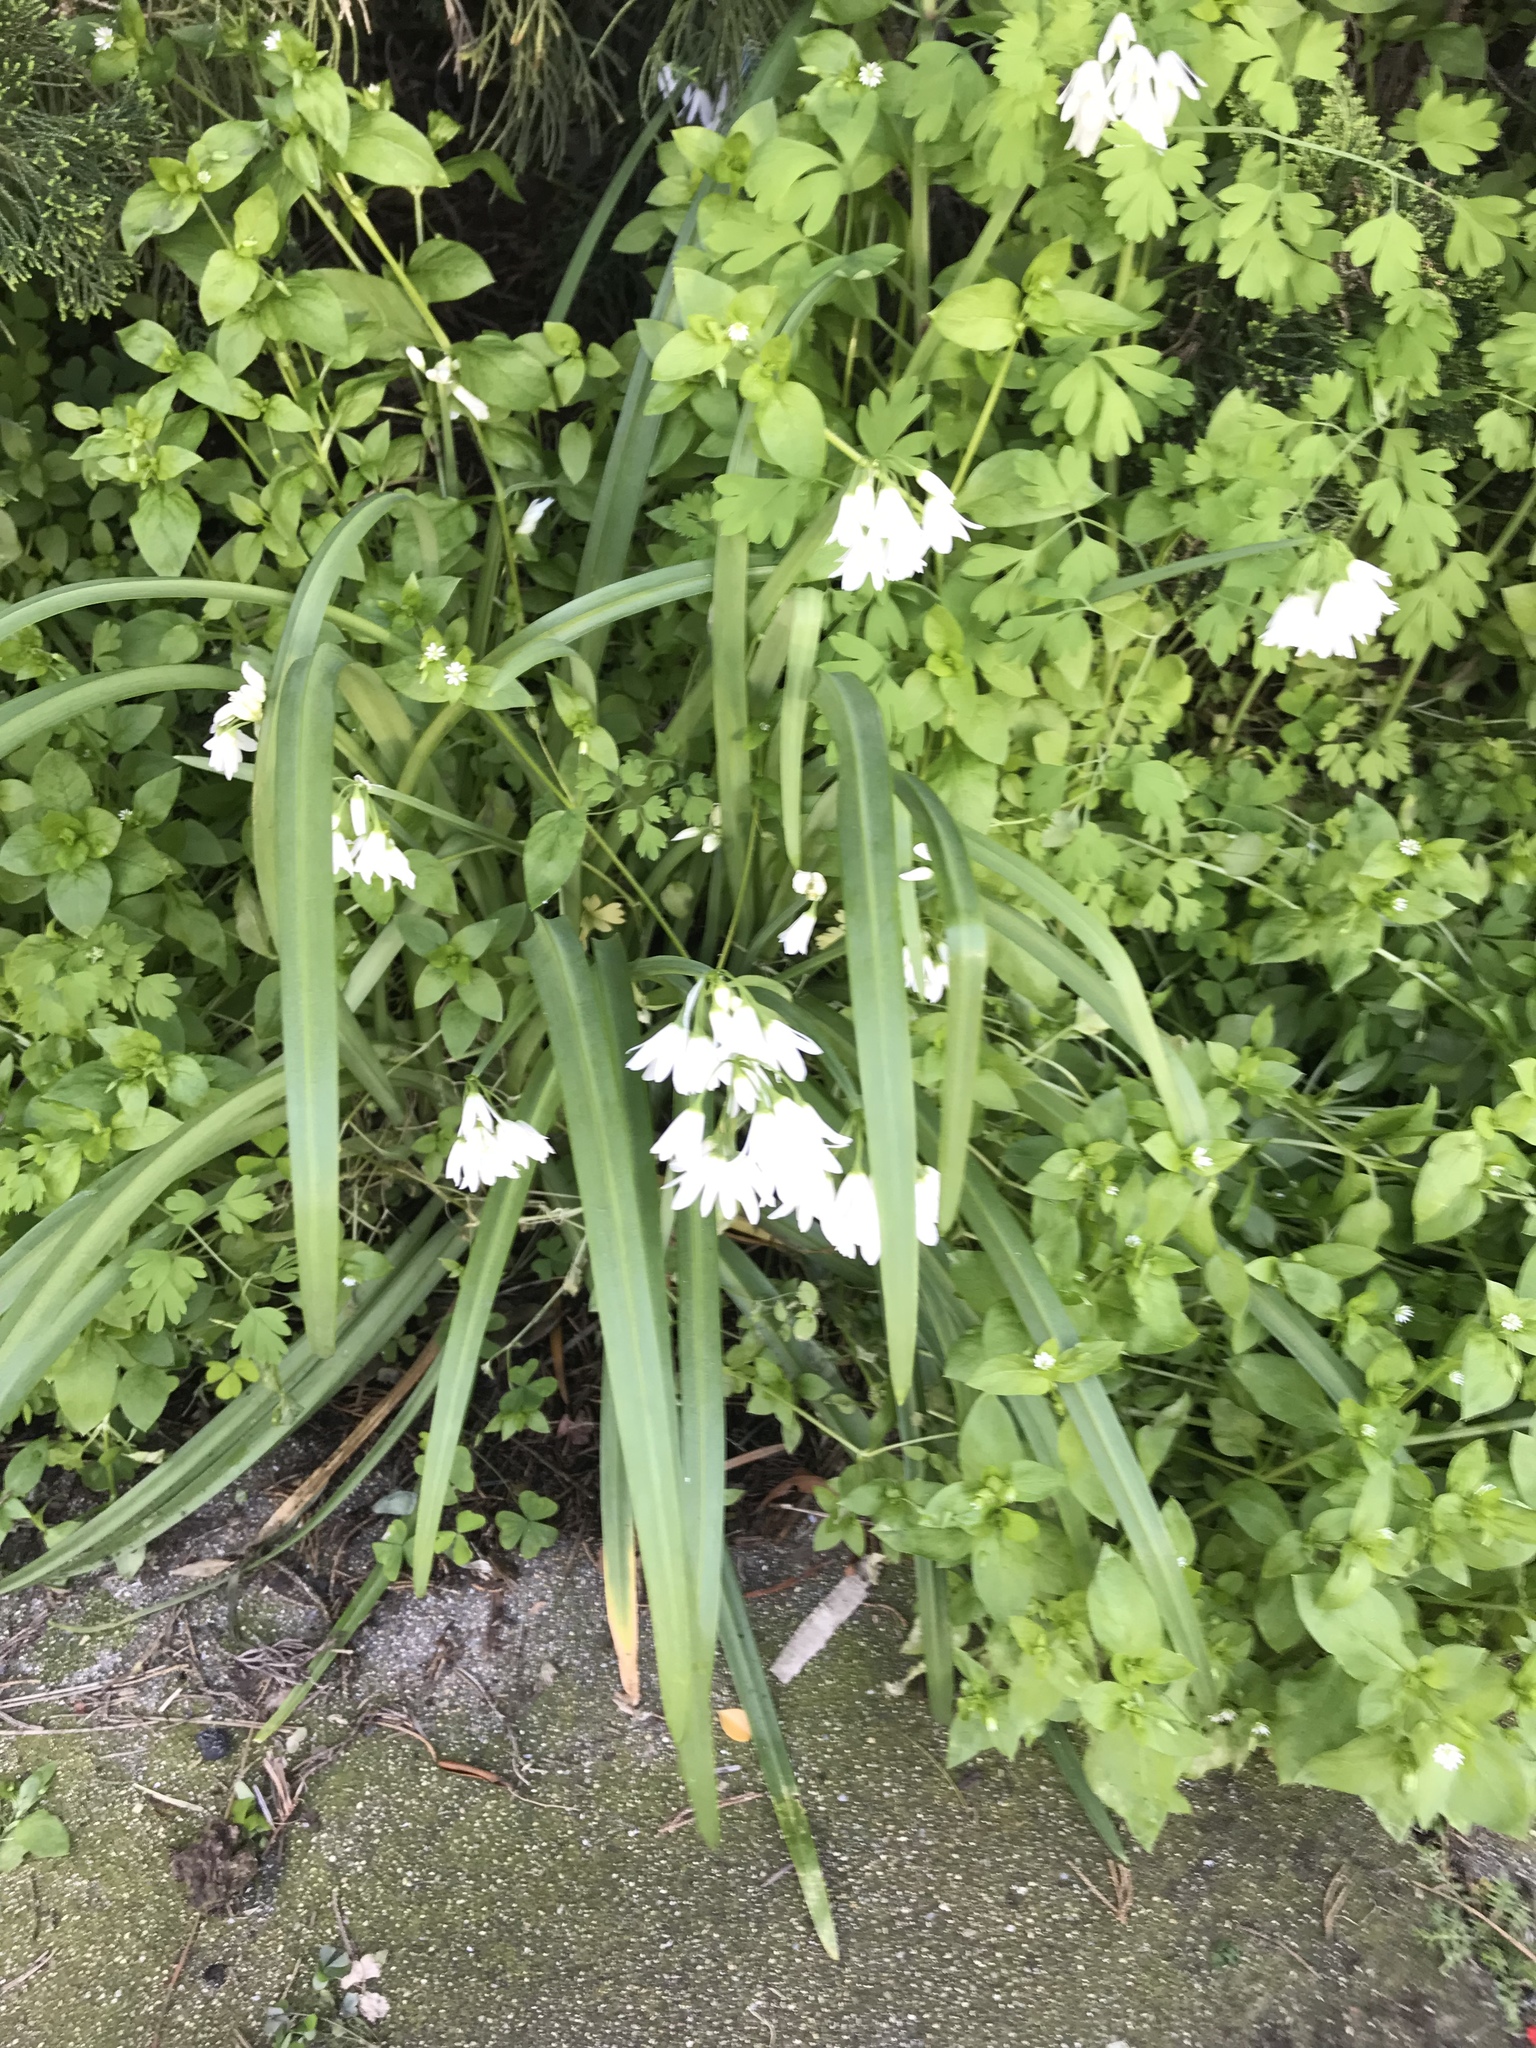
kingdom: Plantae
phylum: Tracheophyta
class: Liliopsida
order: Asparagales
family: Amaryllidaceae
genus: Allium
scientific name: Allium triquetrum
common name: Three-cornered garlic
